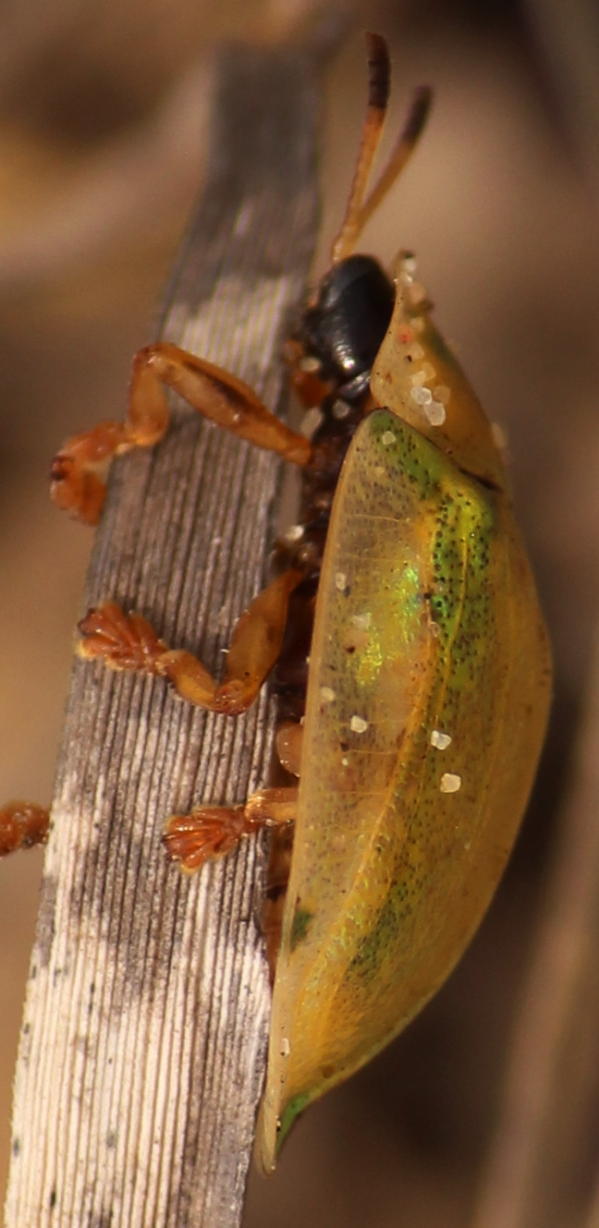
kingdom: Animalia
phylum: Arthropoda
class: Insecta
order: Coleoptera
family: Chrysomelidae
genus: Aspidimorpha
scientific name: Aspidimorpha puncticosta
